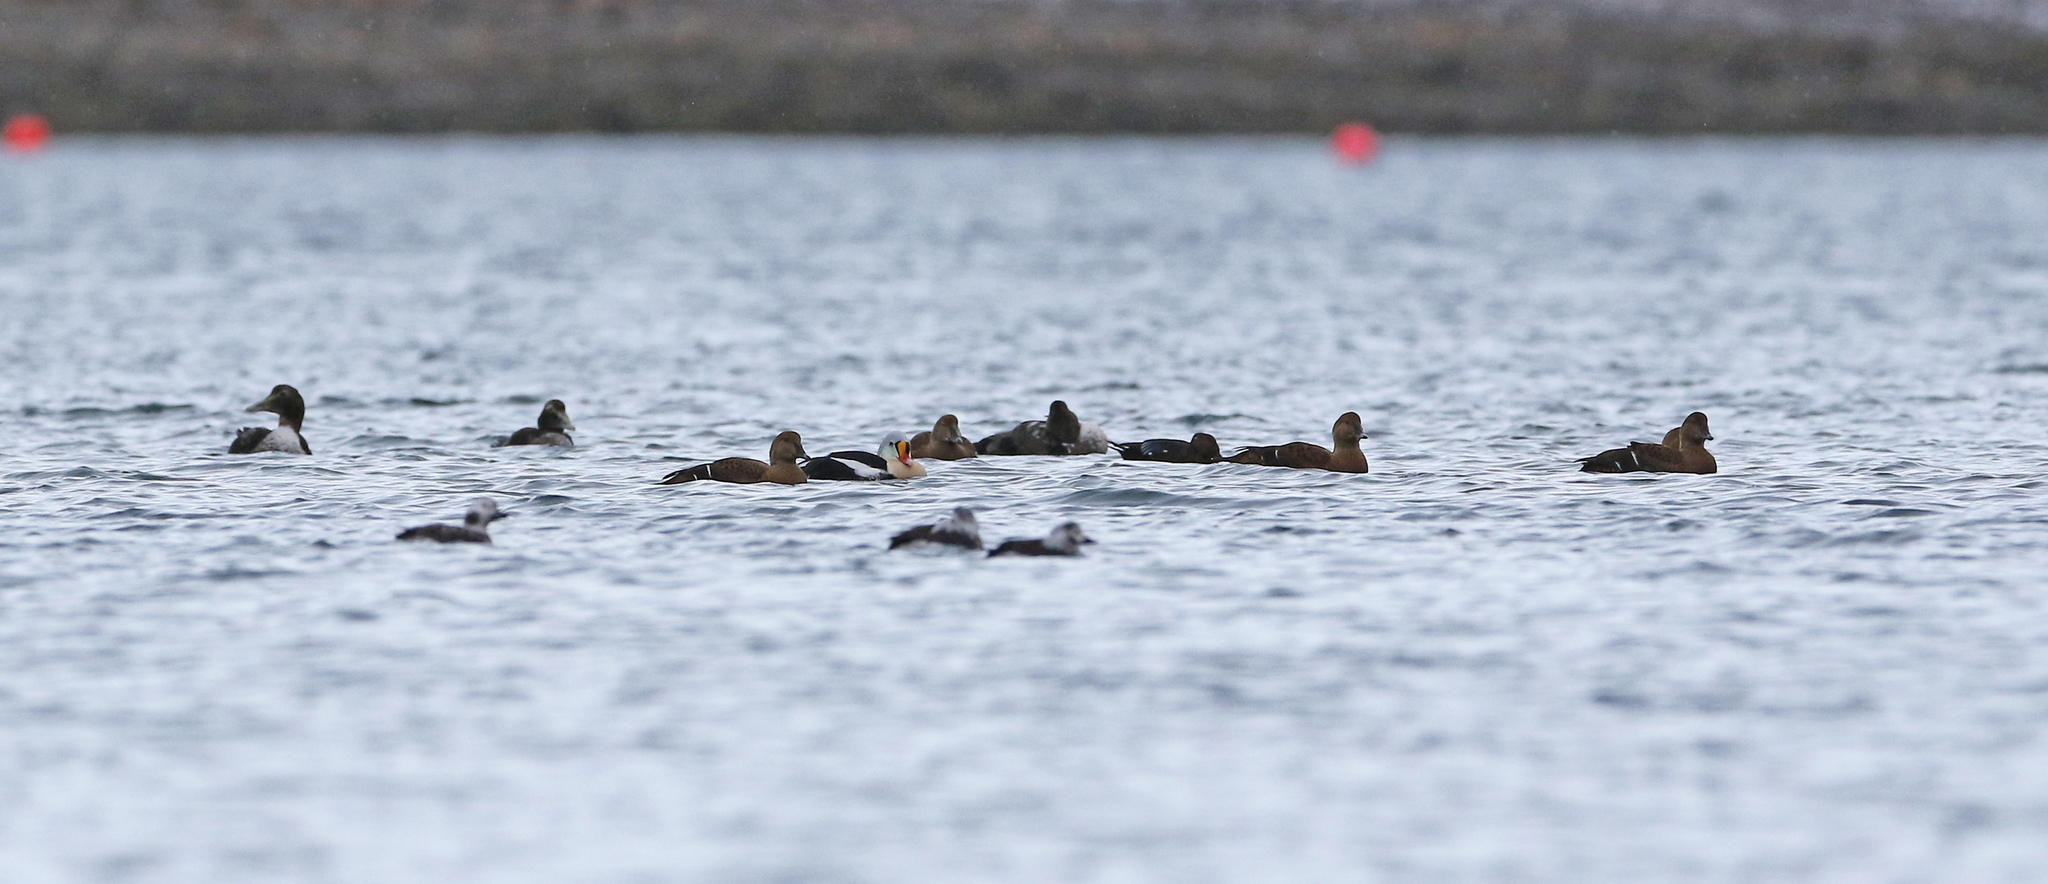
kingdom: Animalia
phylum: Chordata
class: Aves
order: Anseriformes
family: Anatidae
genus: Somateria
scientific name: Somateria spectabilis
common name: King eider
